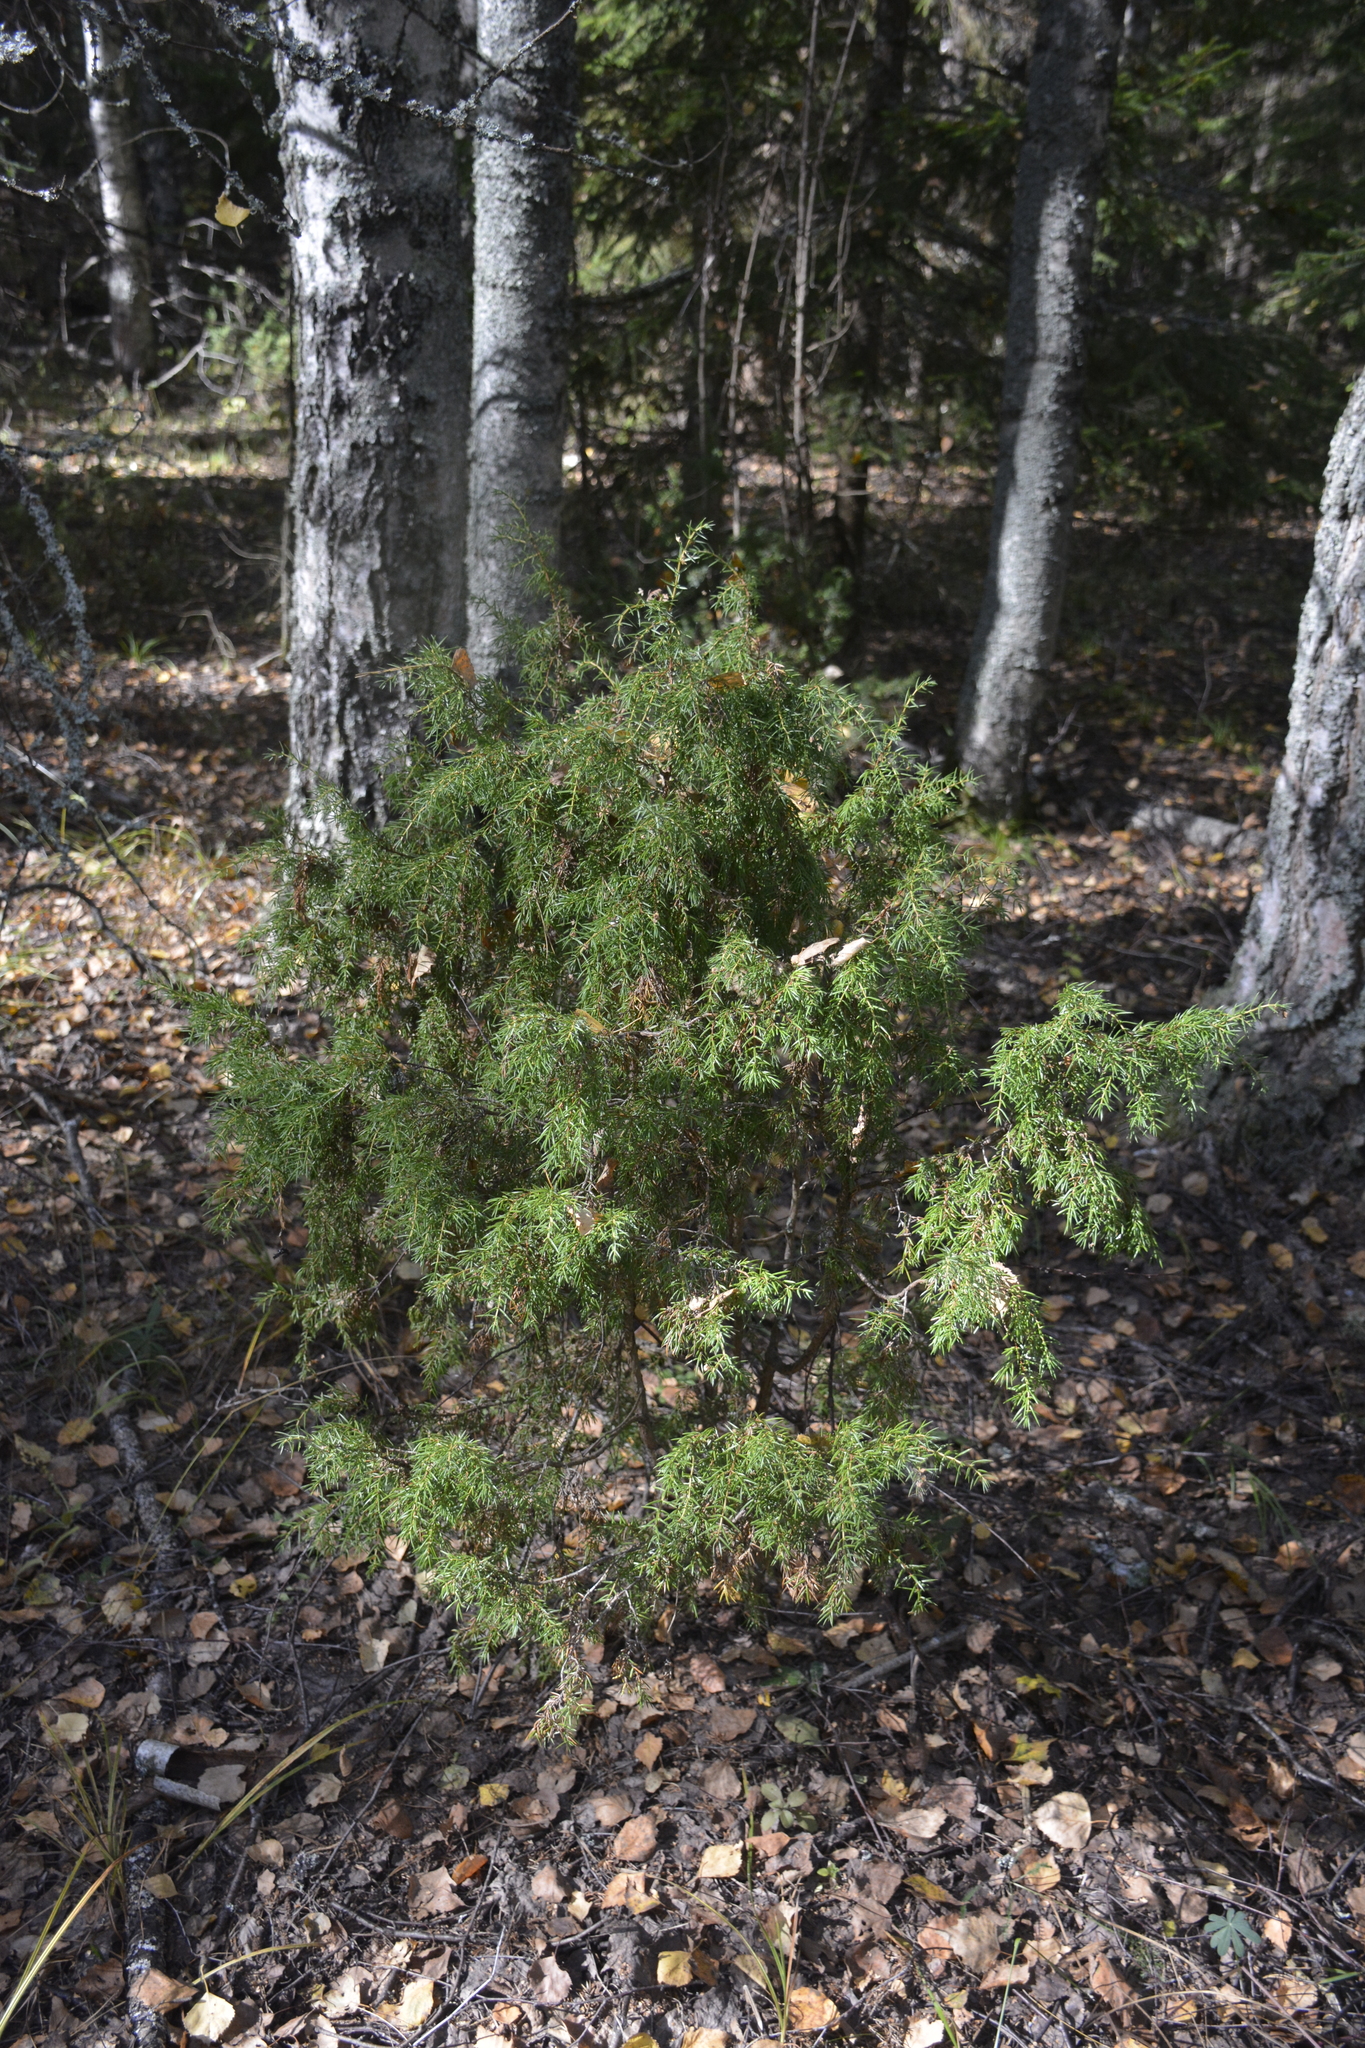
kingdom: Plantae
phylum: Tracheophyta
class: Pinopsida
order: Pinales
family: Cupressaceae
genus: Juniperus
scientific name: Juniperus communis
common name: Common juniper
